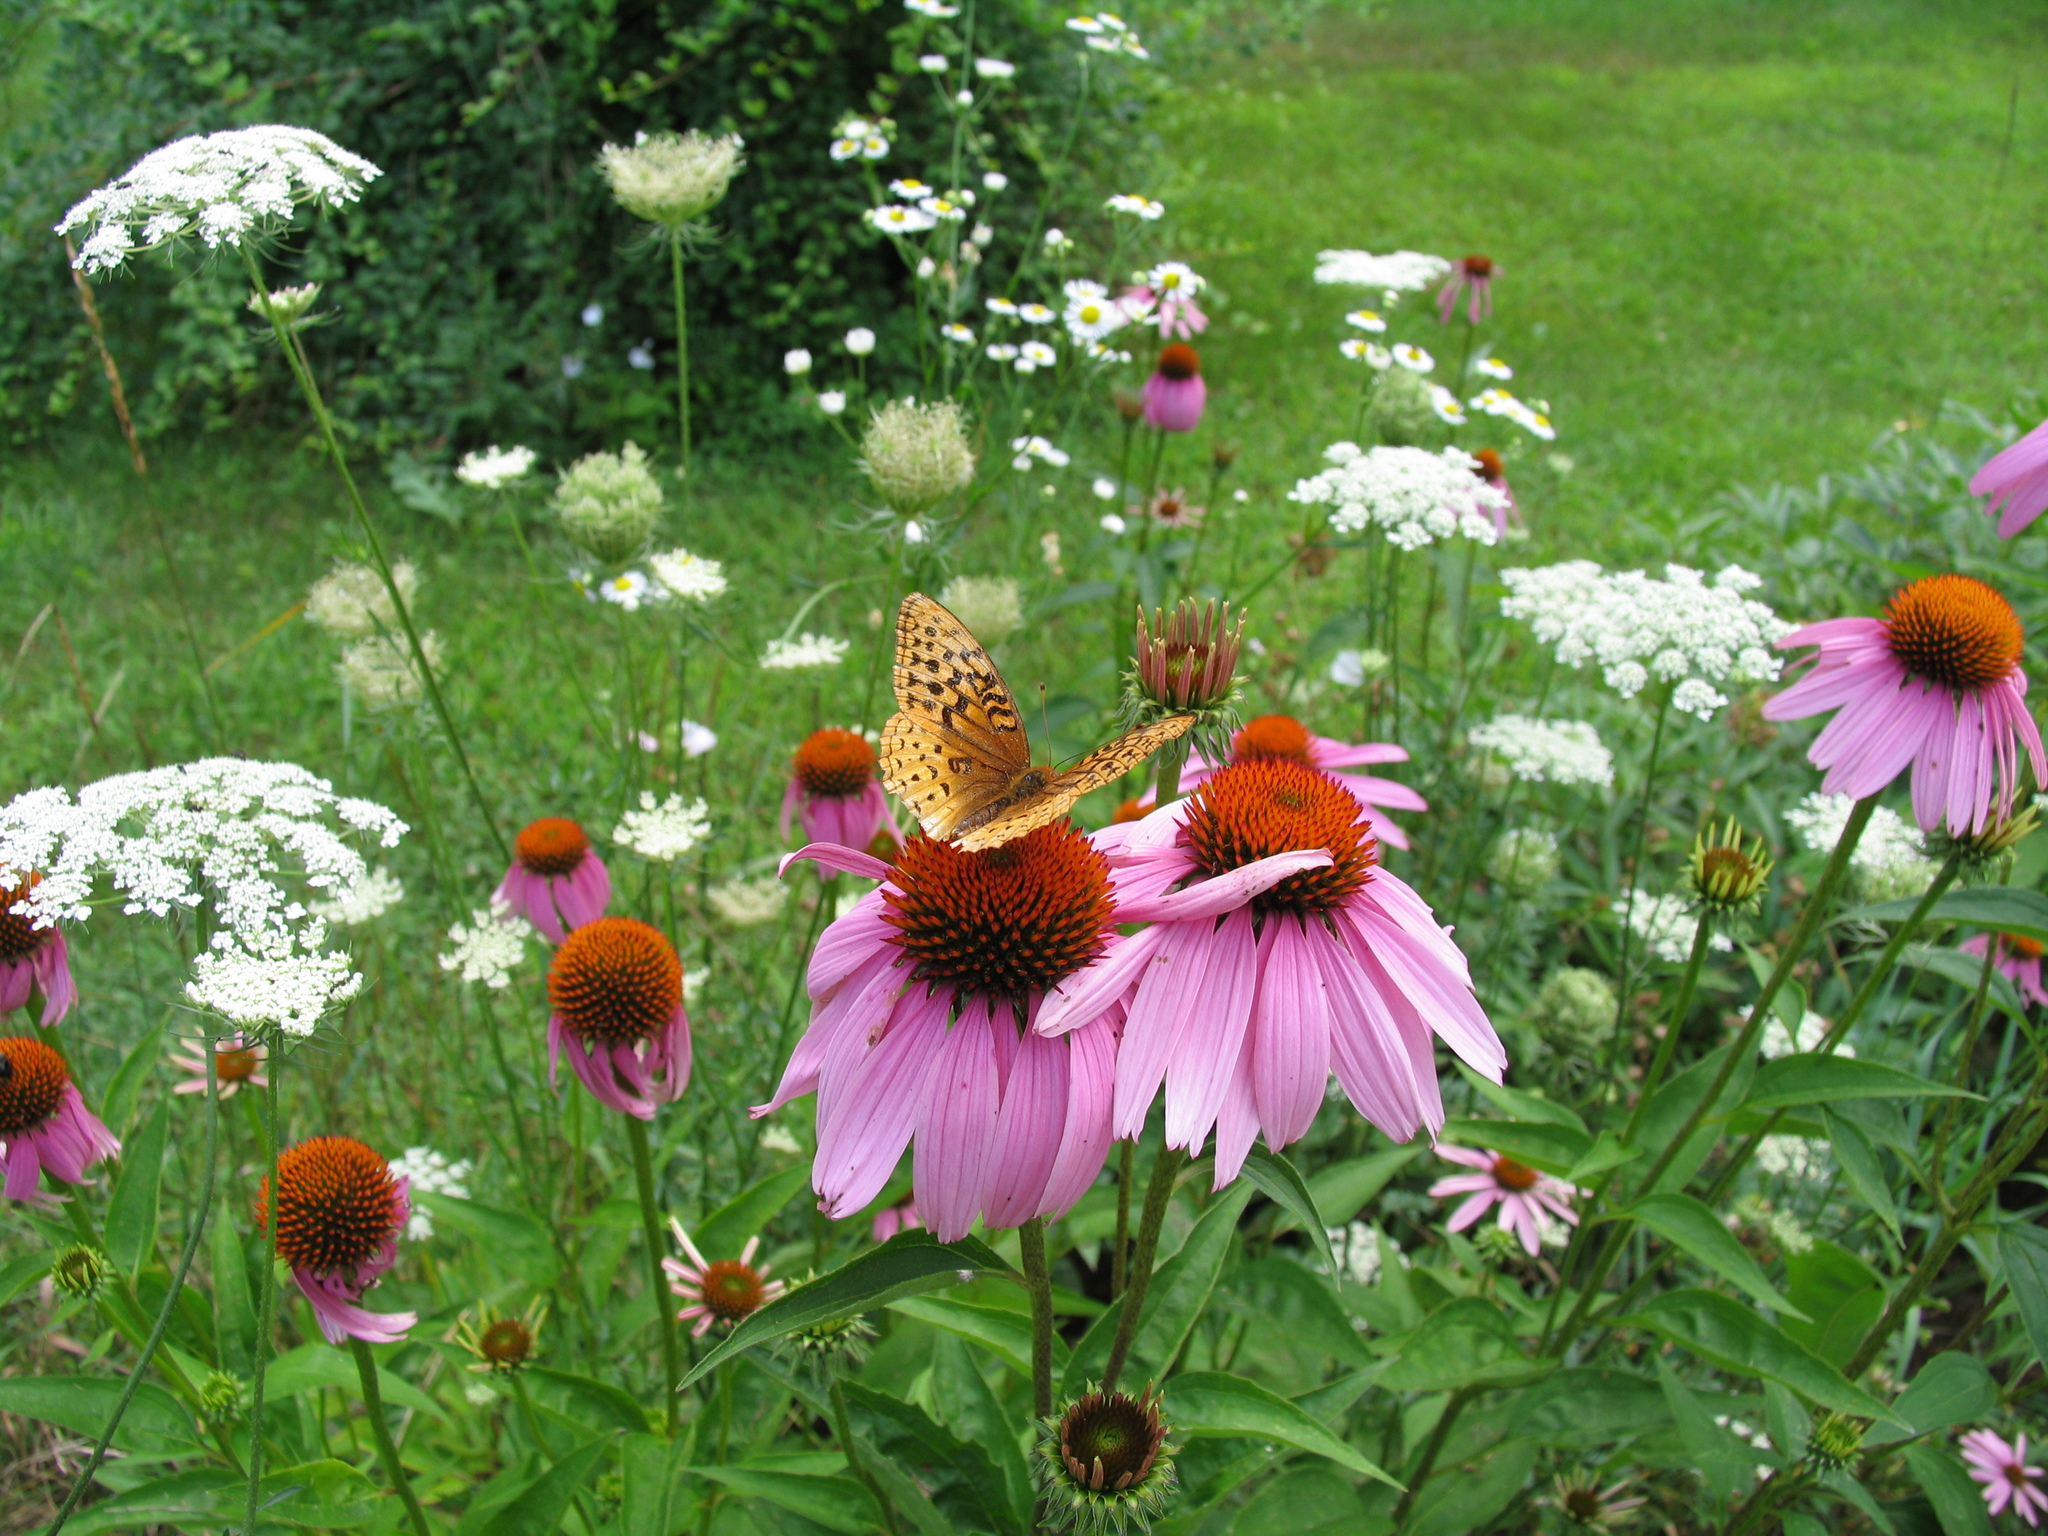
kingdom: Animalia
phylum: Arthropoda
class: Insecta
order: Lepidoptera
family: Nymphalidae
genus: Speyeria
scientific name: Speyeria cybele
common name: Great spangled fritillary
